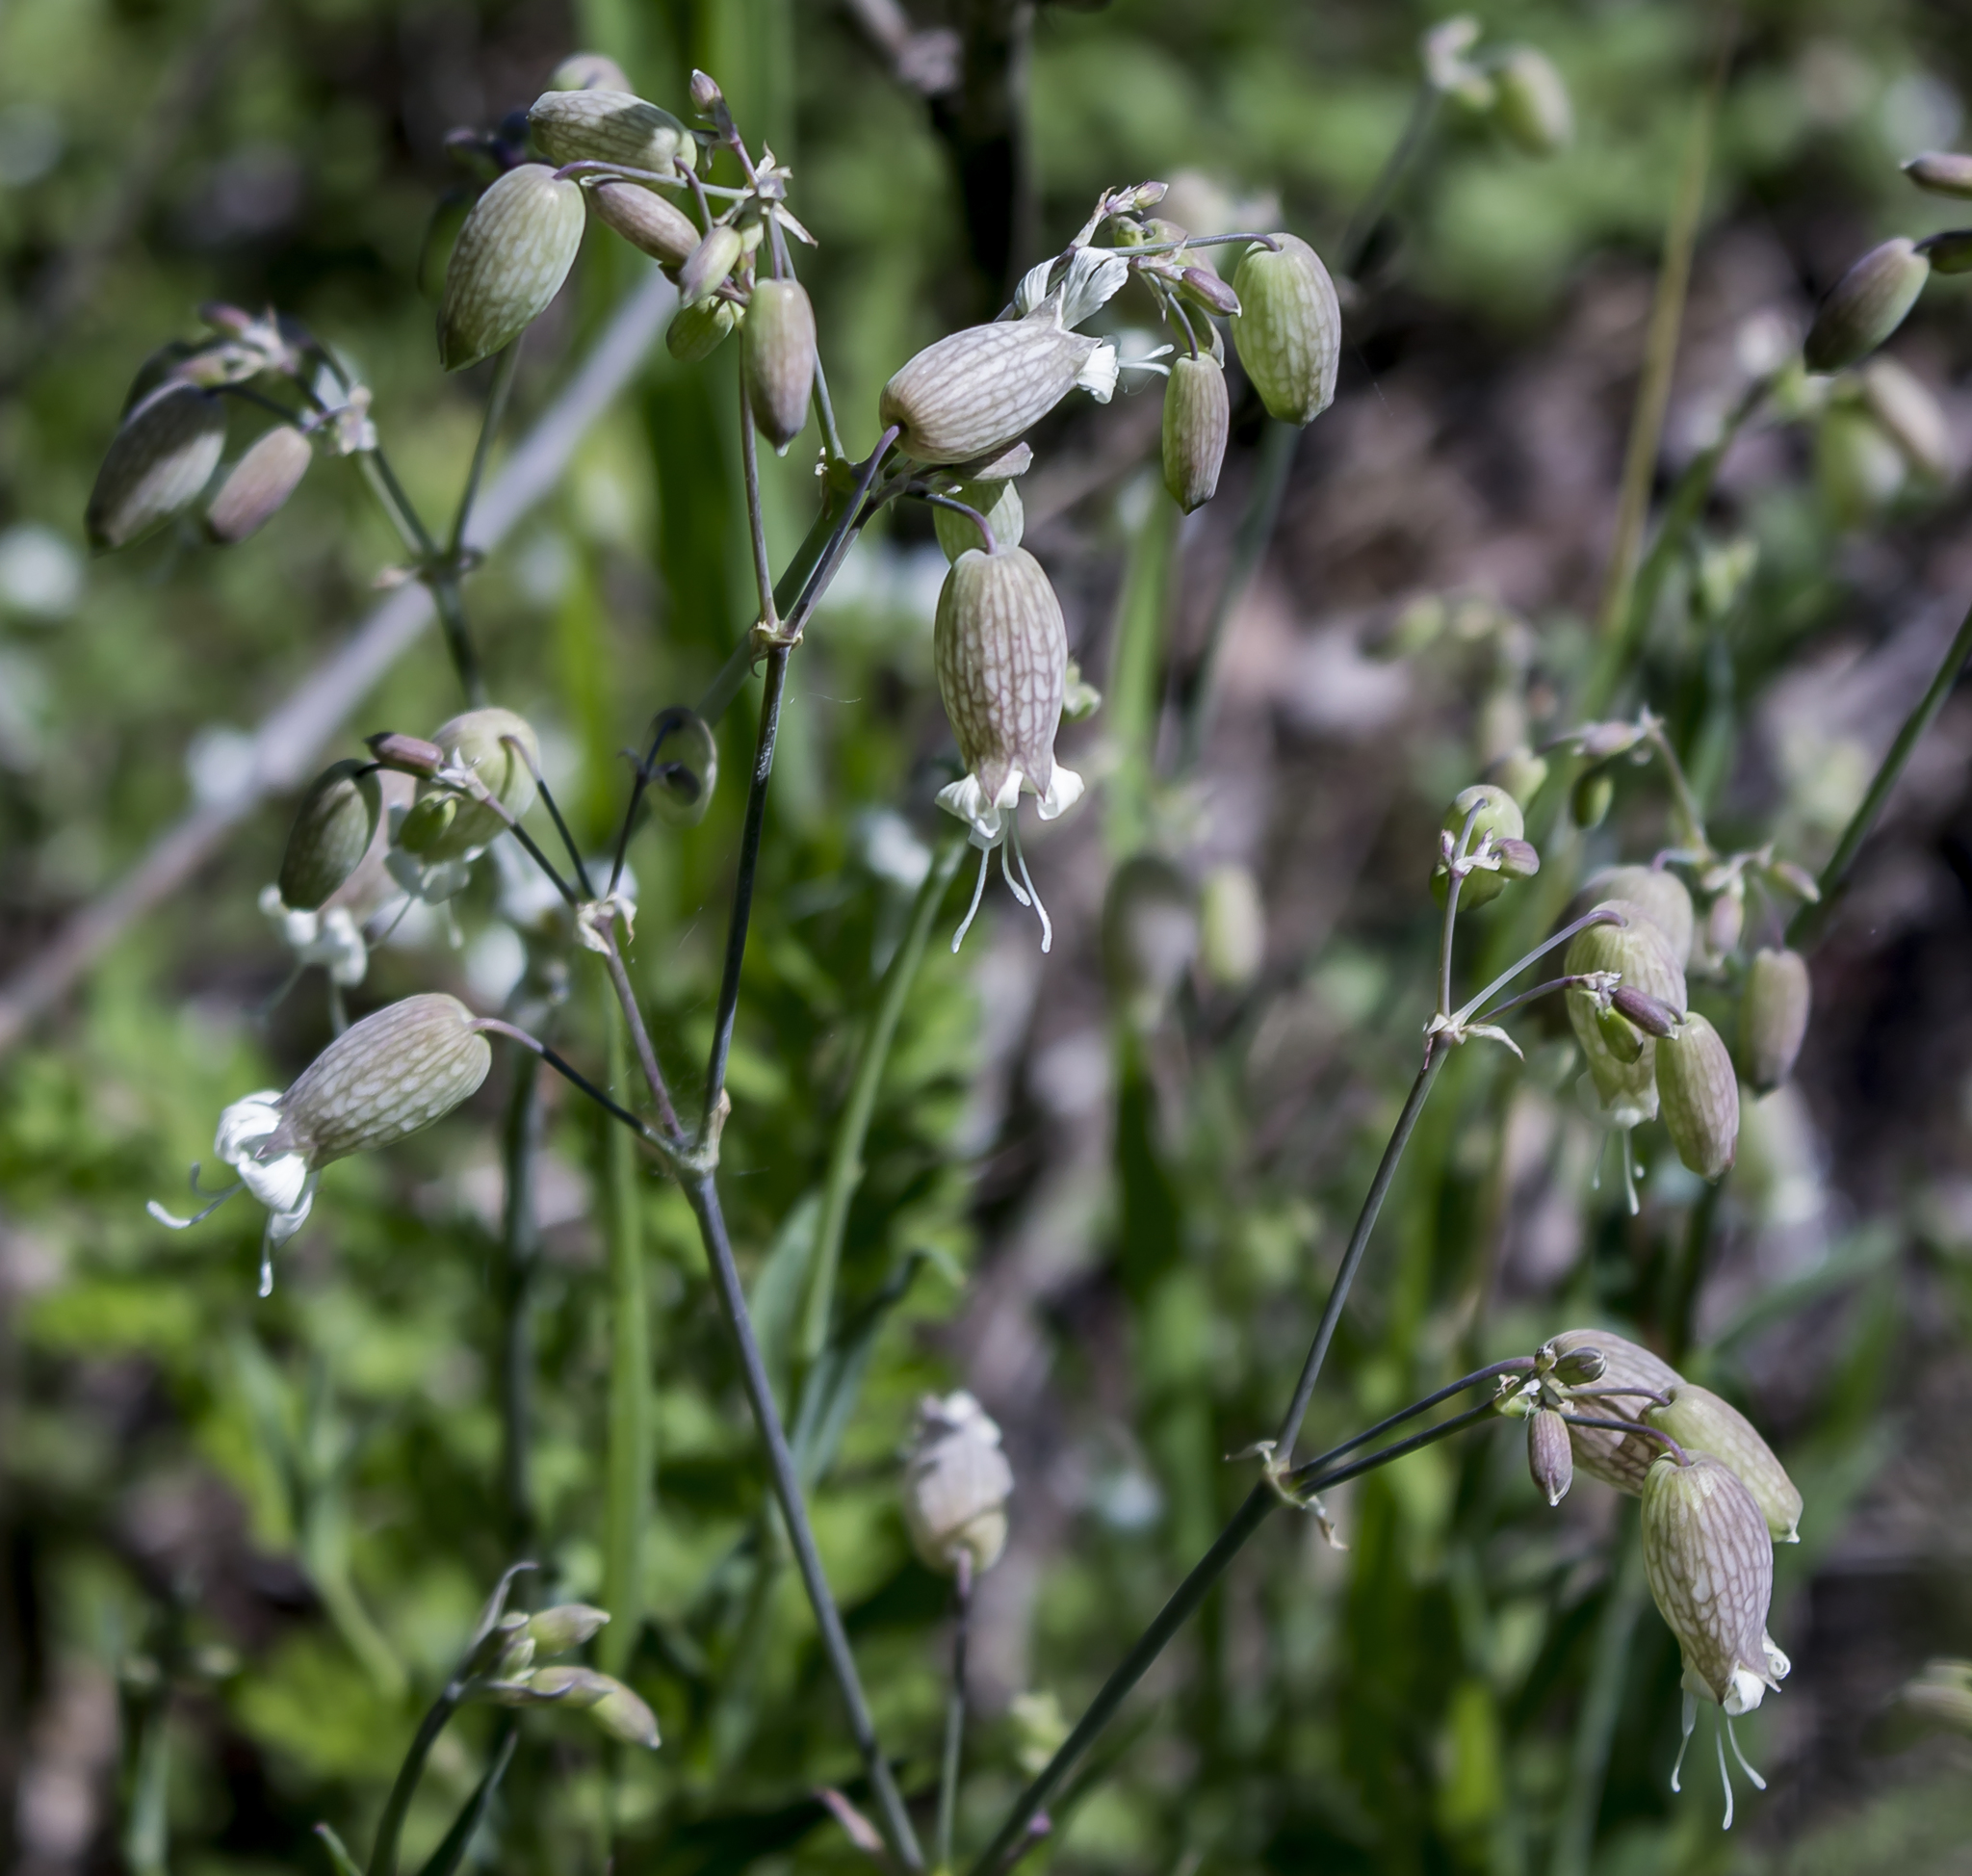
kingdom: Plantae
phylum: Tracheophyta
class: Magnoliopsida
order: Caryophyllales
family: Caryophyllaceae
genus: Silene
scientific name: Silene vulgaris
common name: Bladder campion
